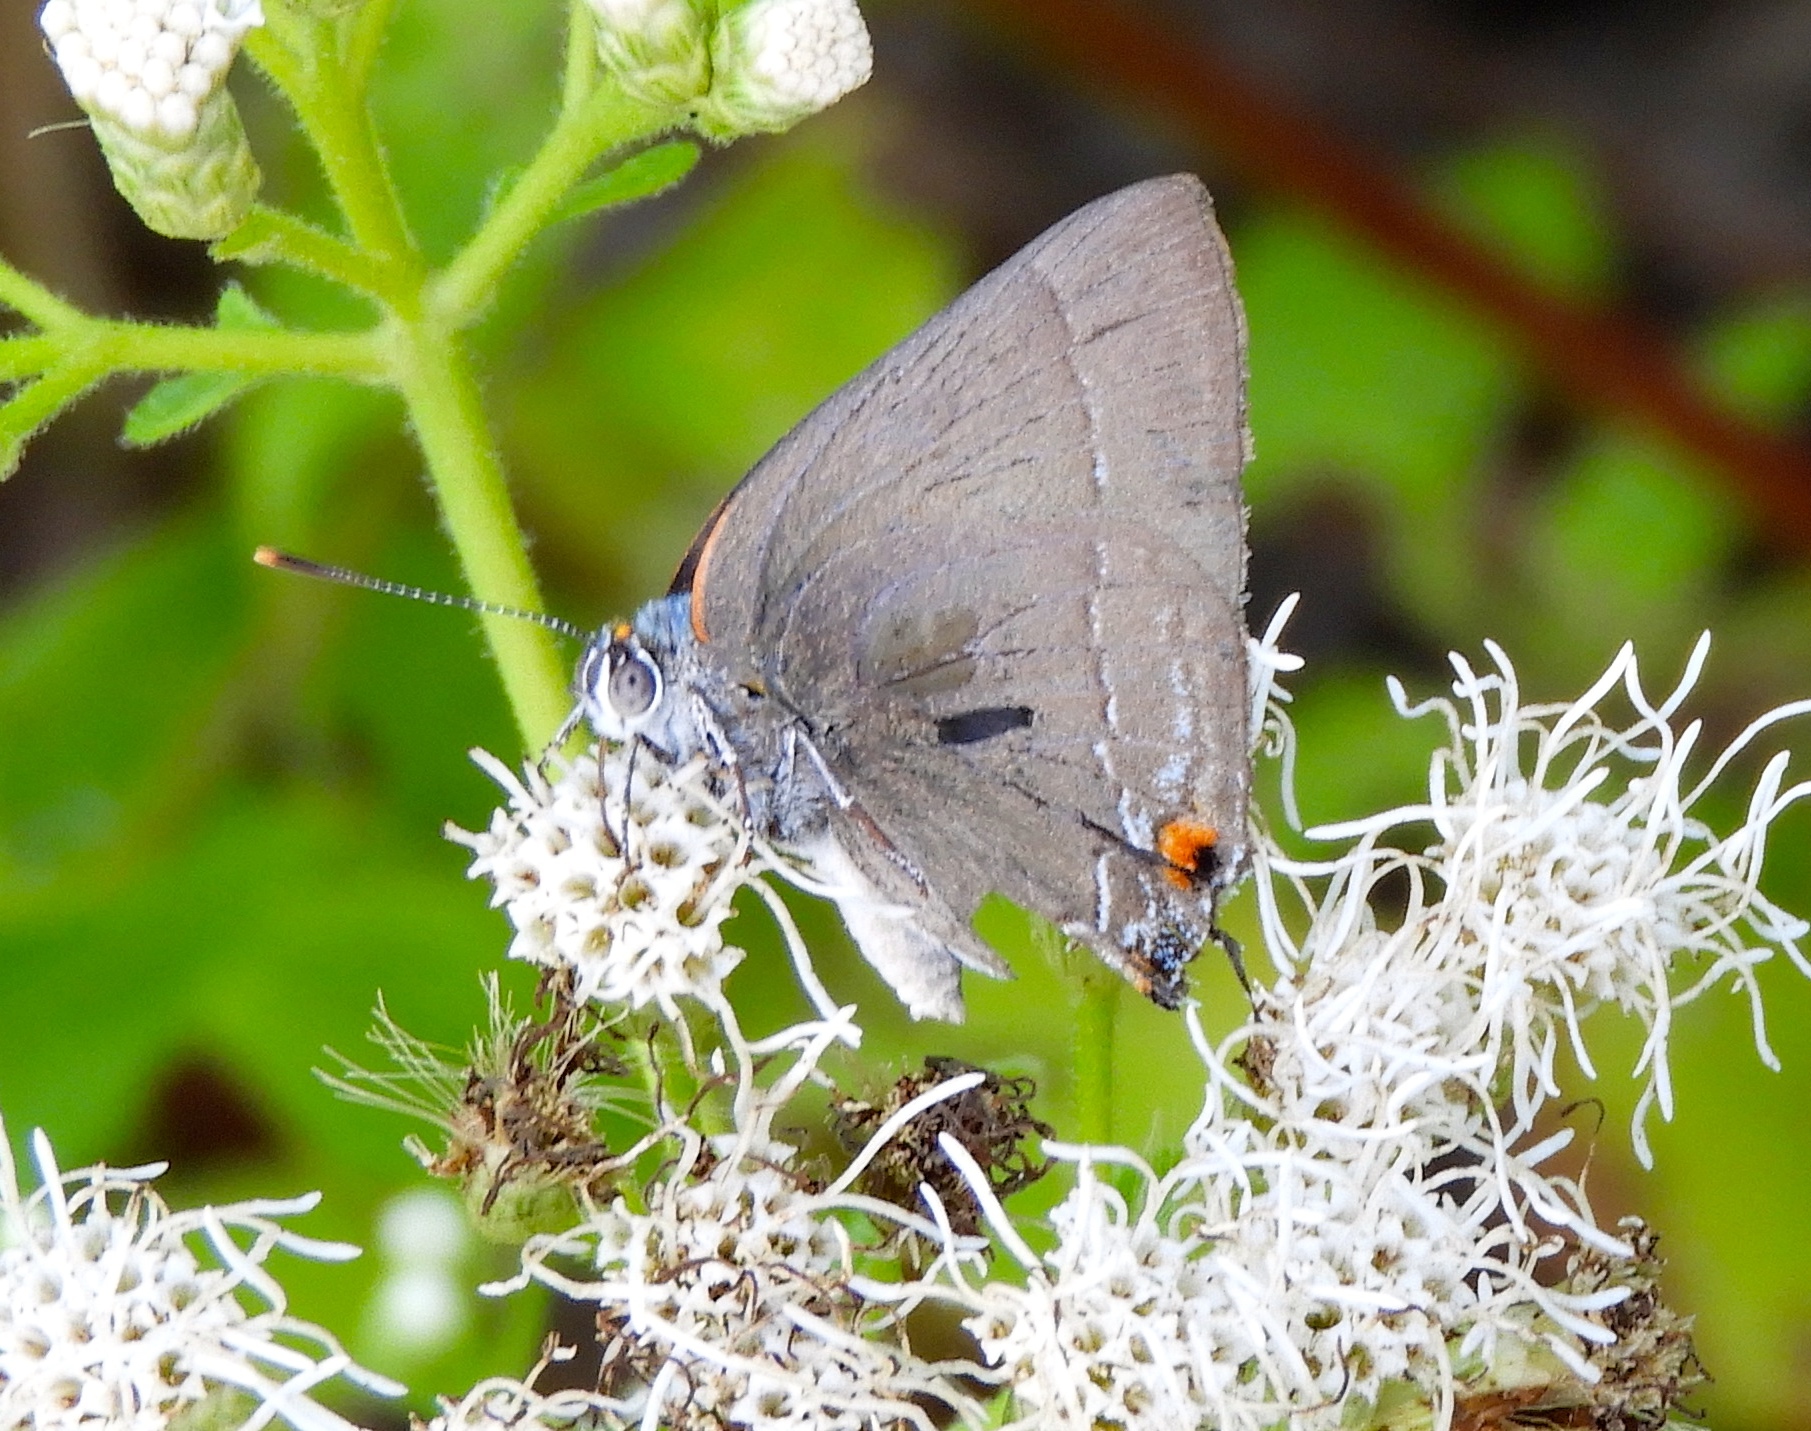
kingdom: Animalia
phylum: Arthropoda
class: Insecta
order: Lepidoptera
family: Lycaenidae
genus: Thecla
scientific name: Thecla marius
